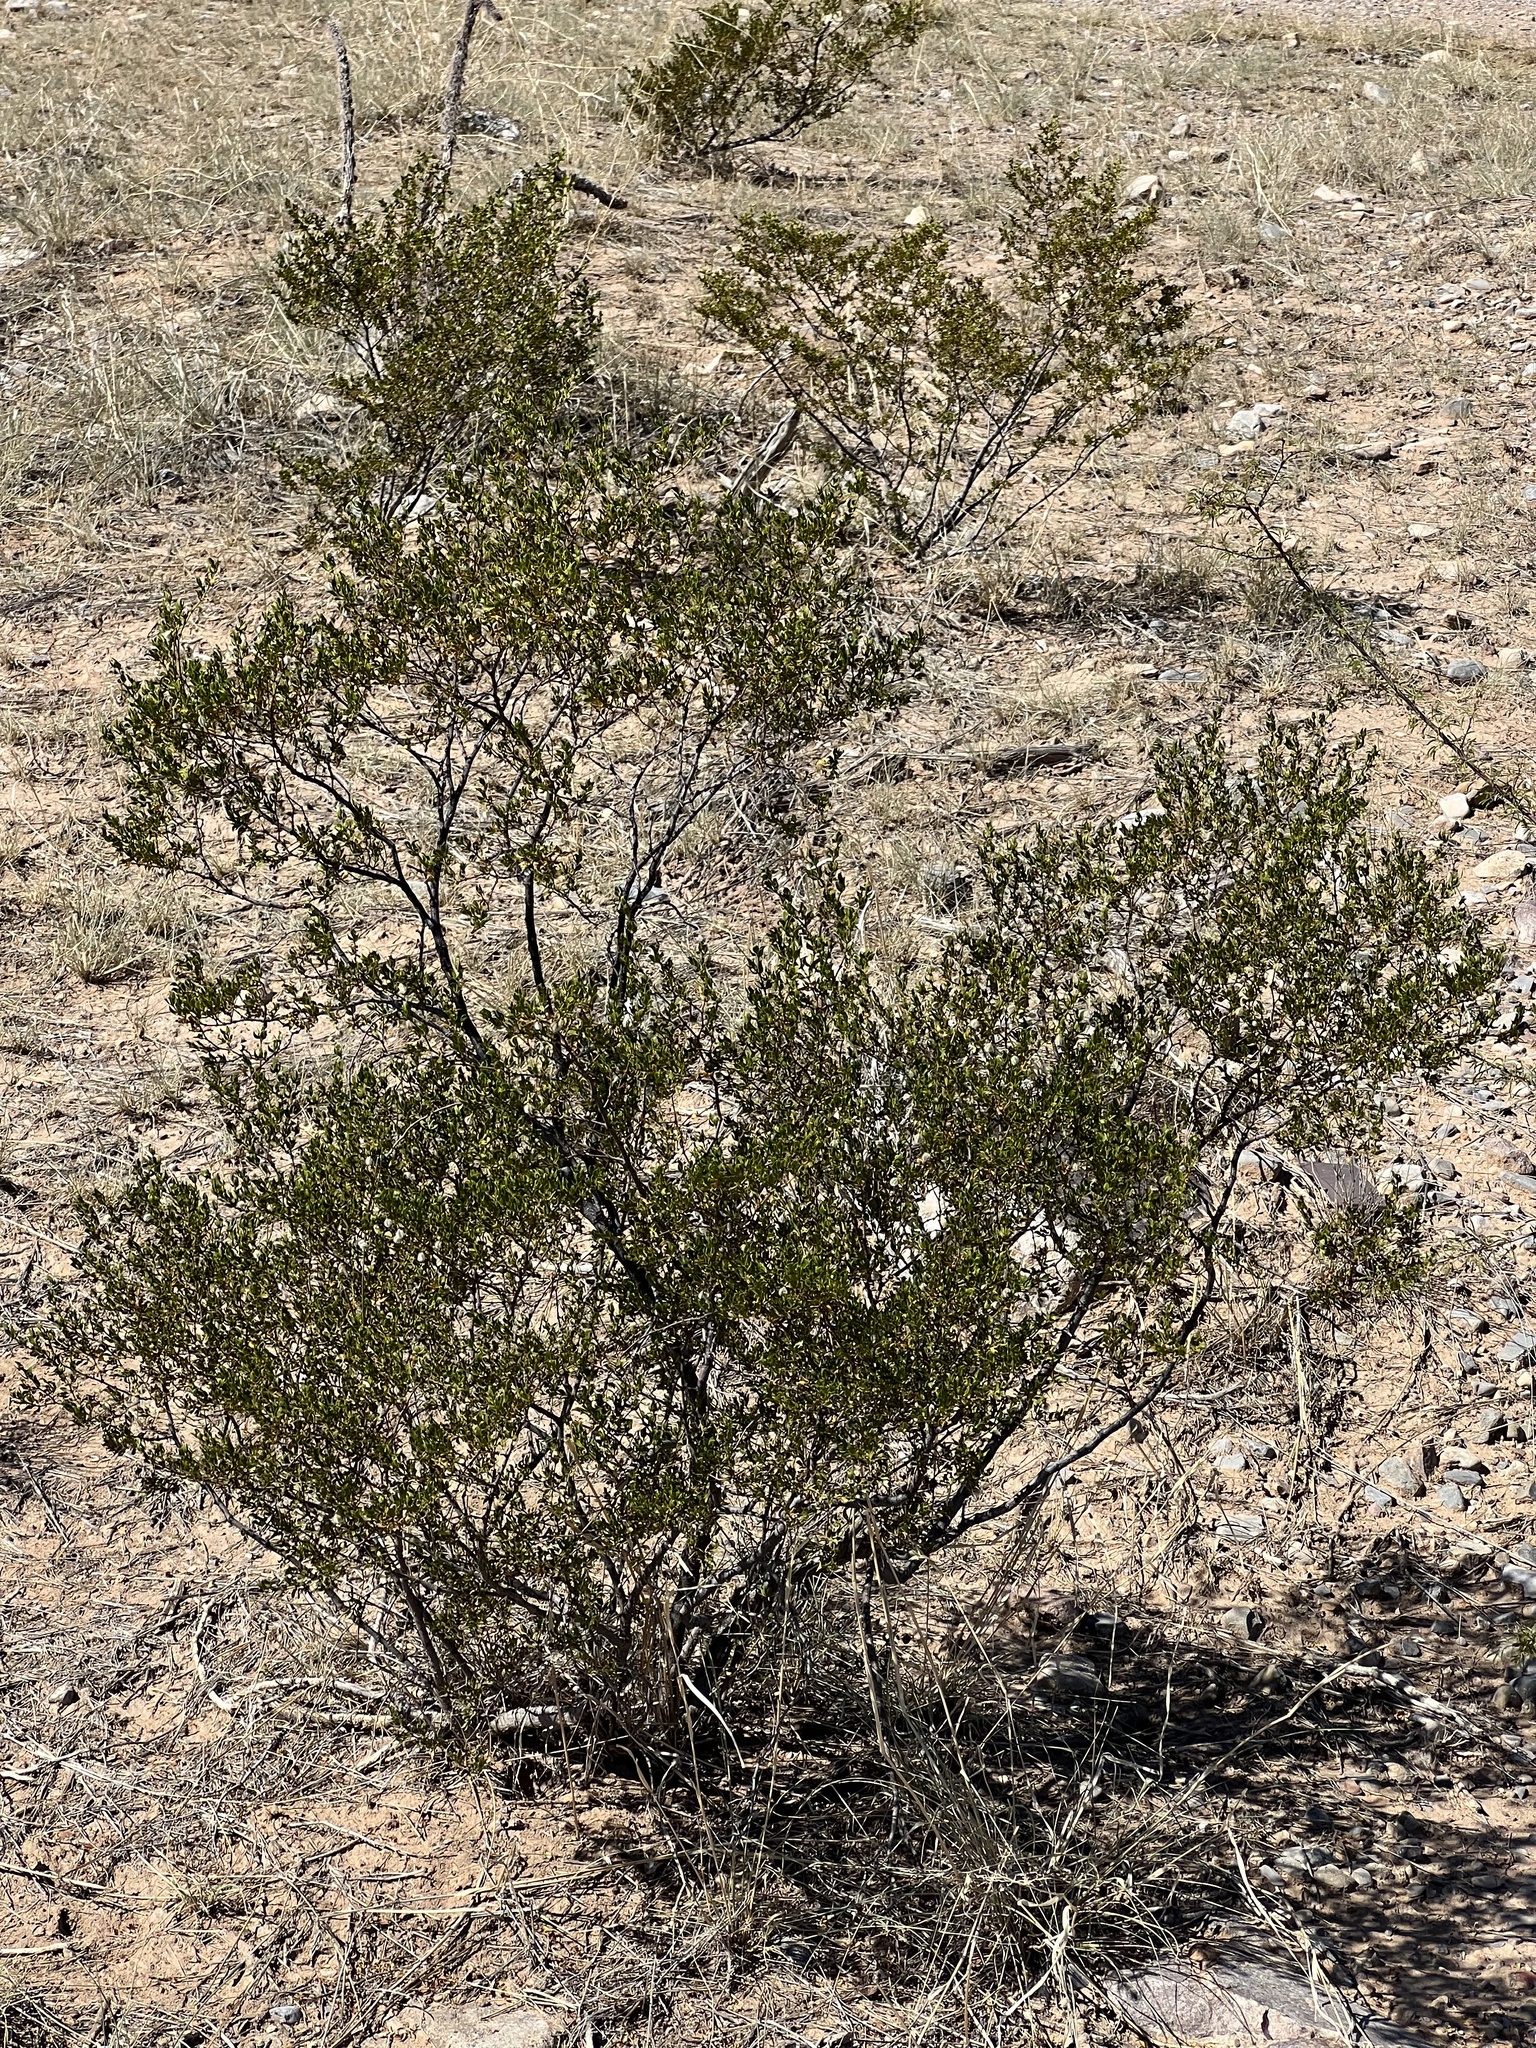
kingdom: Plantae
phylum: Tracheophyta
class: Magnoliopsida
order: Zygophyllales
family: Zygophyllaceae
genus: Larrea
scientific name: Larrea tridentata
